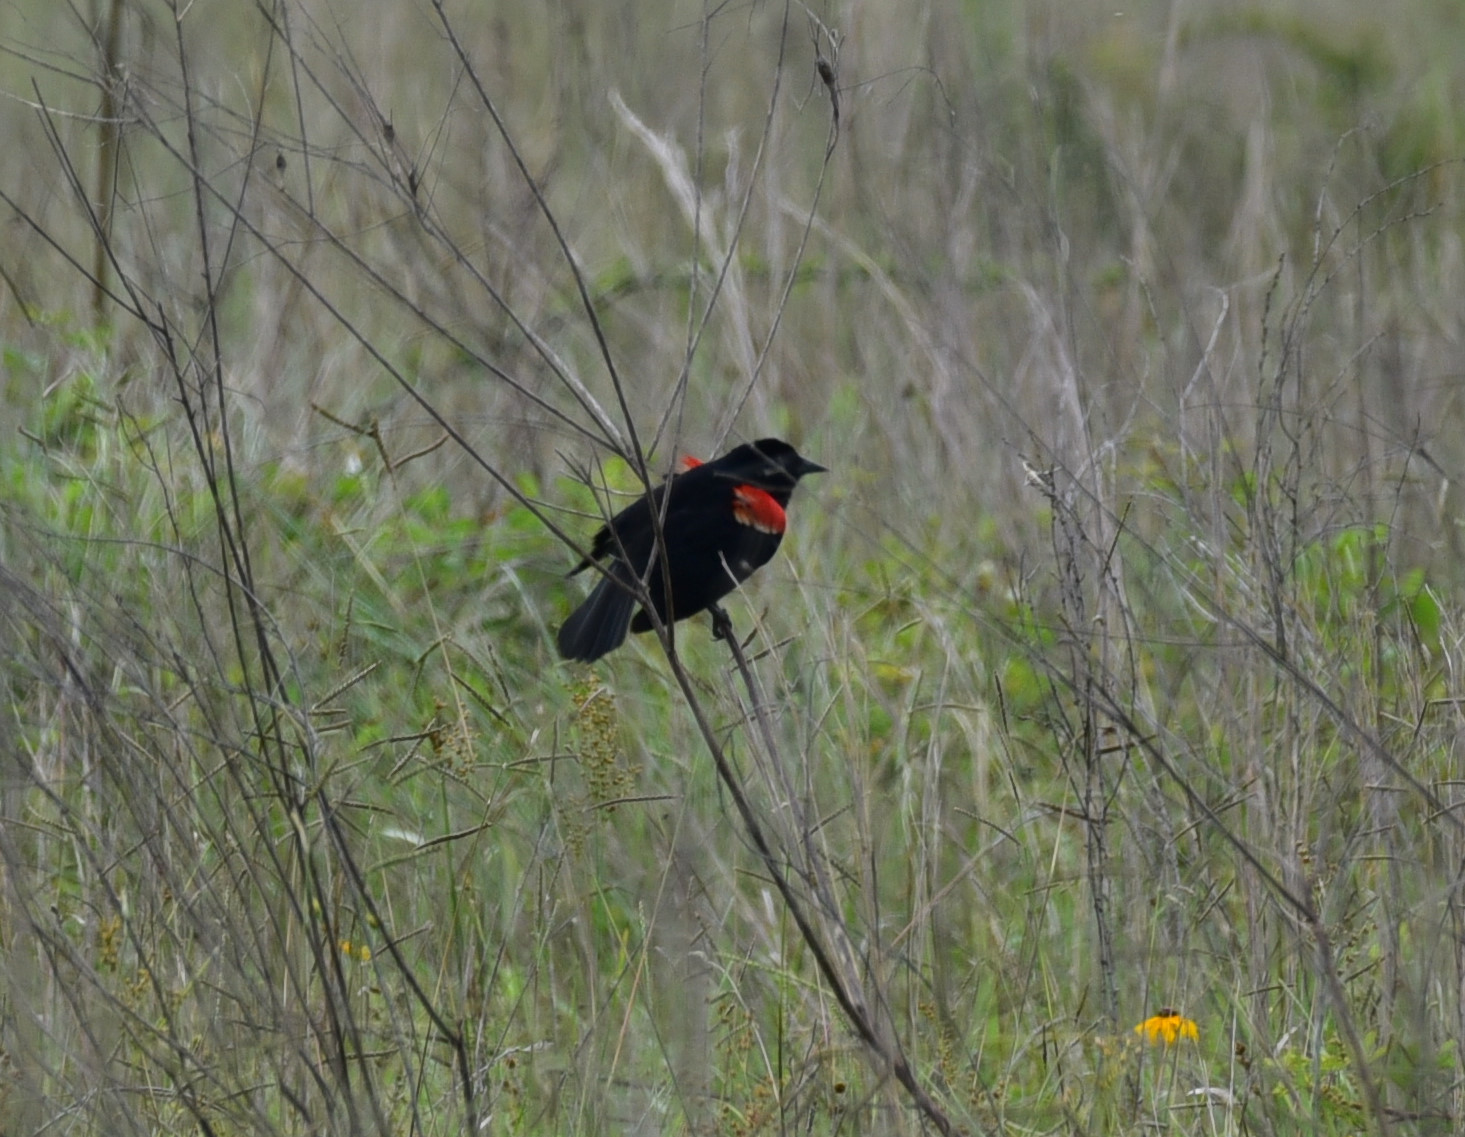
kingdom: Animalia
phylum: Chordata
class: Aves
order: Passeriformes
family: Icteridae
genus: Agelaius
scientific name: Agelaius phoeniceus
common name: Red-winged blackbird
